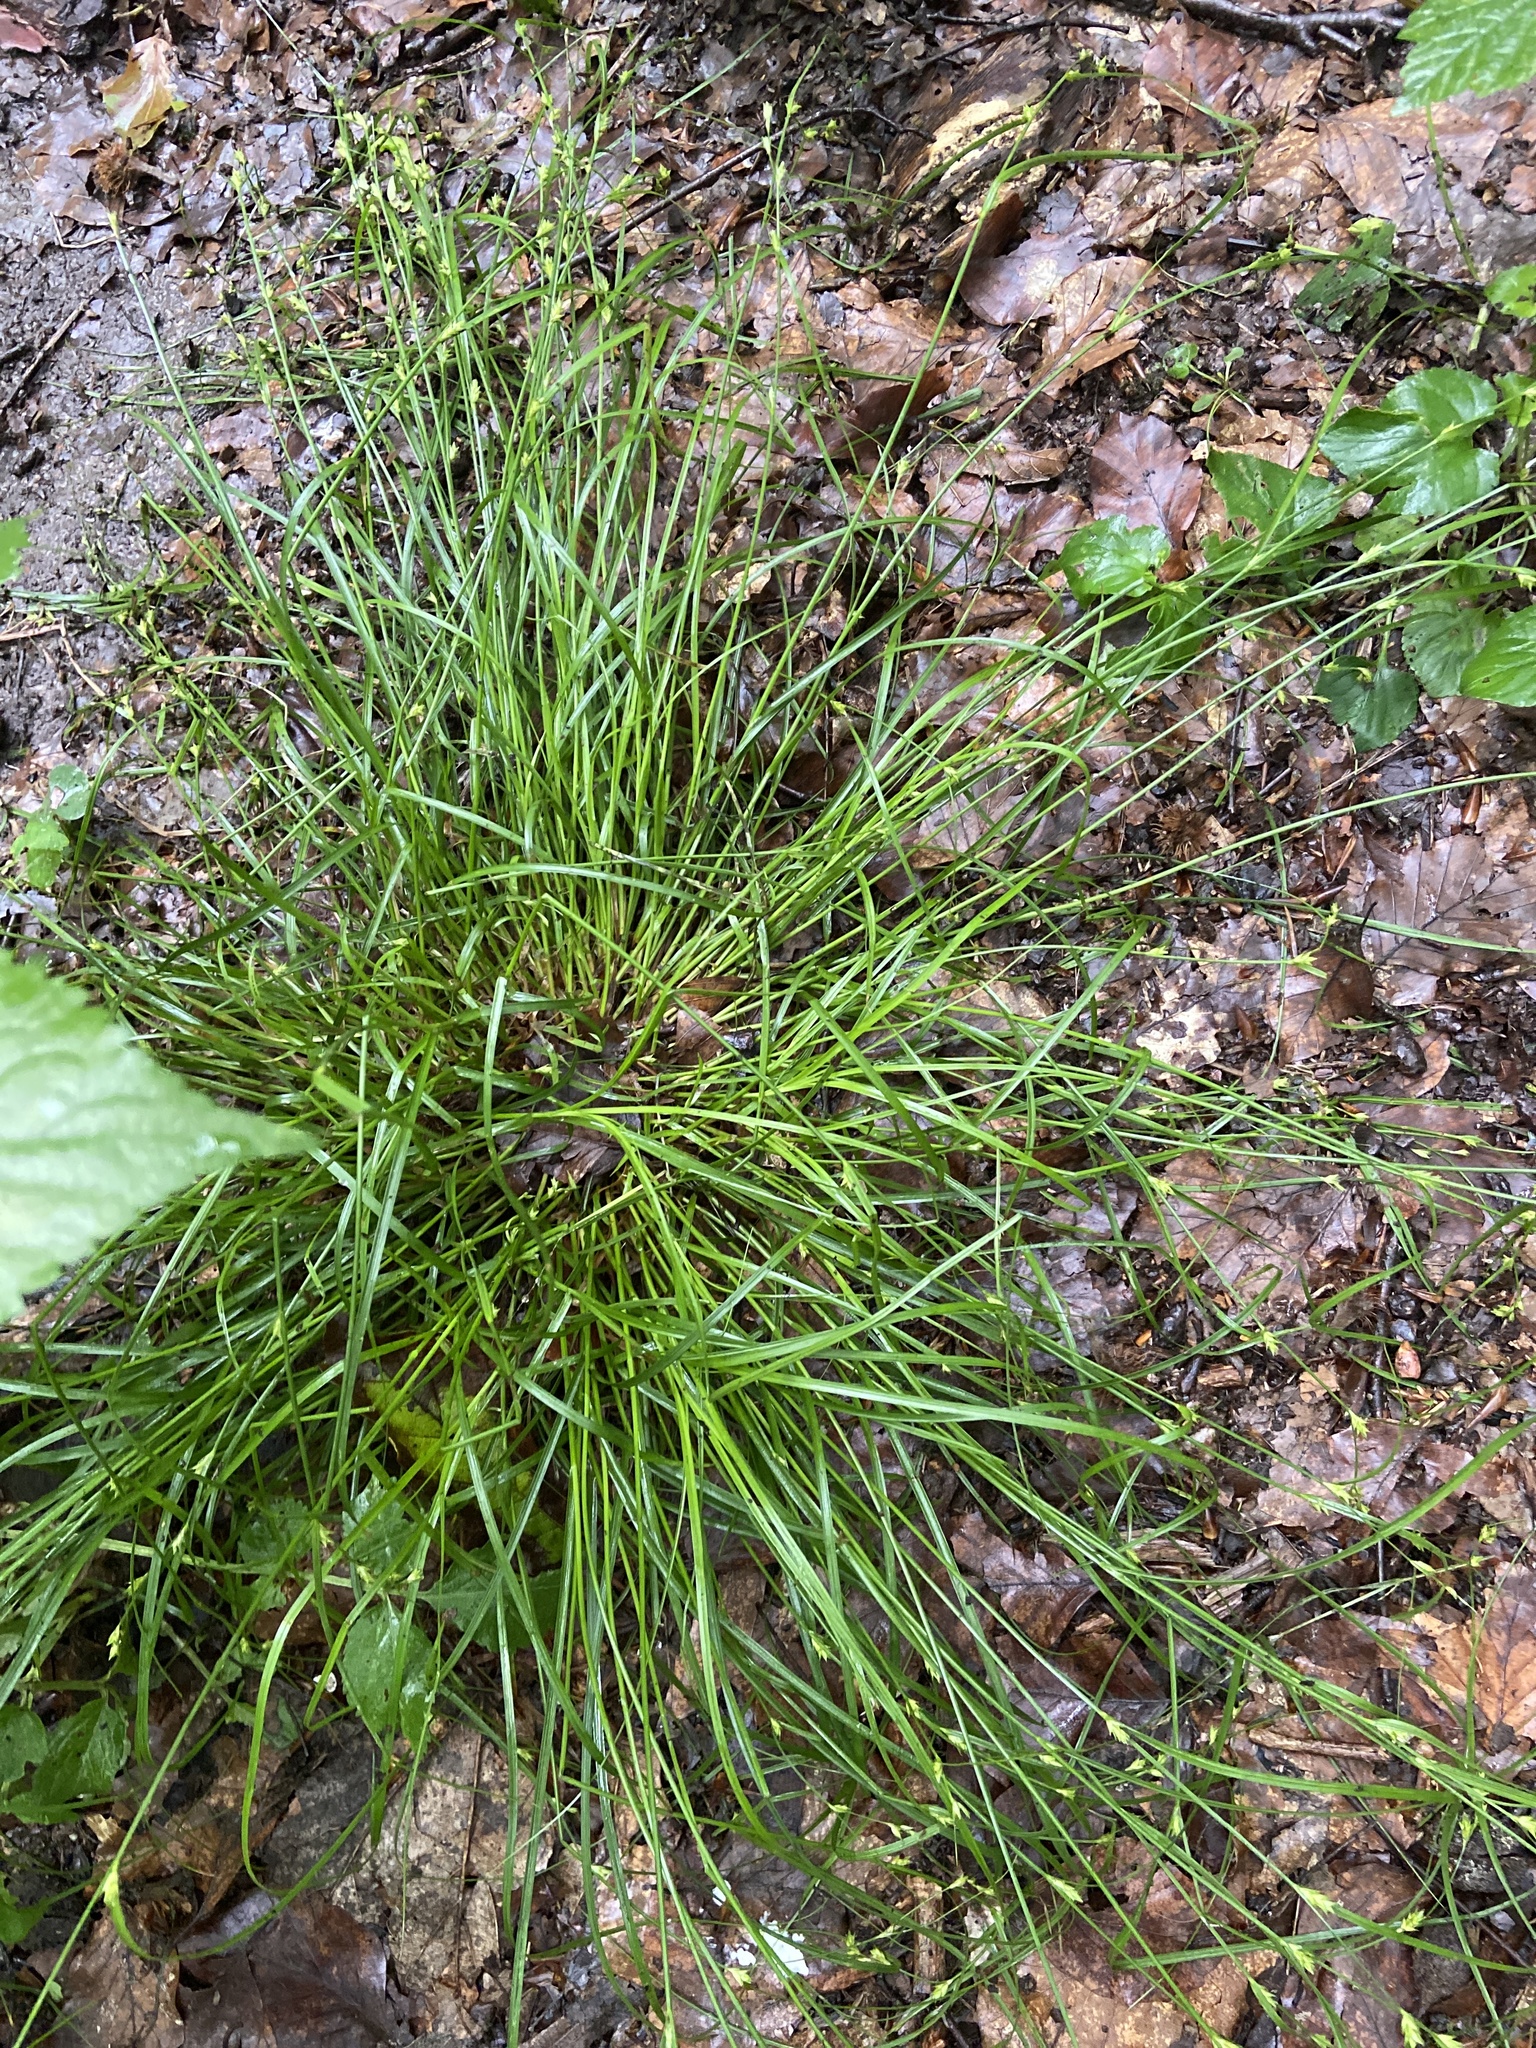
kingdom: Plantae
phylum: Tracheophyta
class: Liliopsida
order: Poales
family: Cyperaceae
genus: Carex
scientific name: Carex remota
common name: Remote sedge
